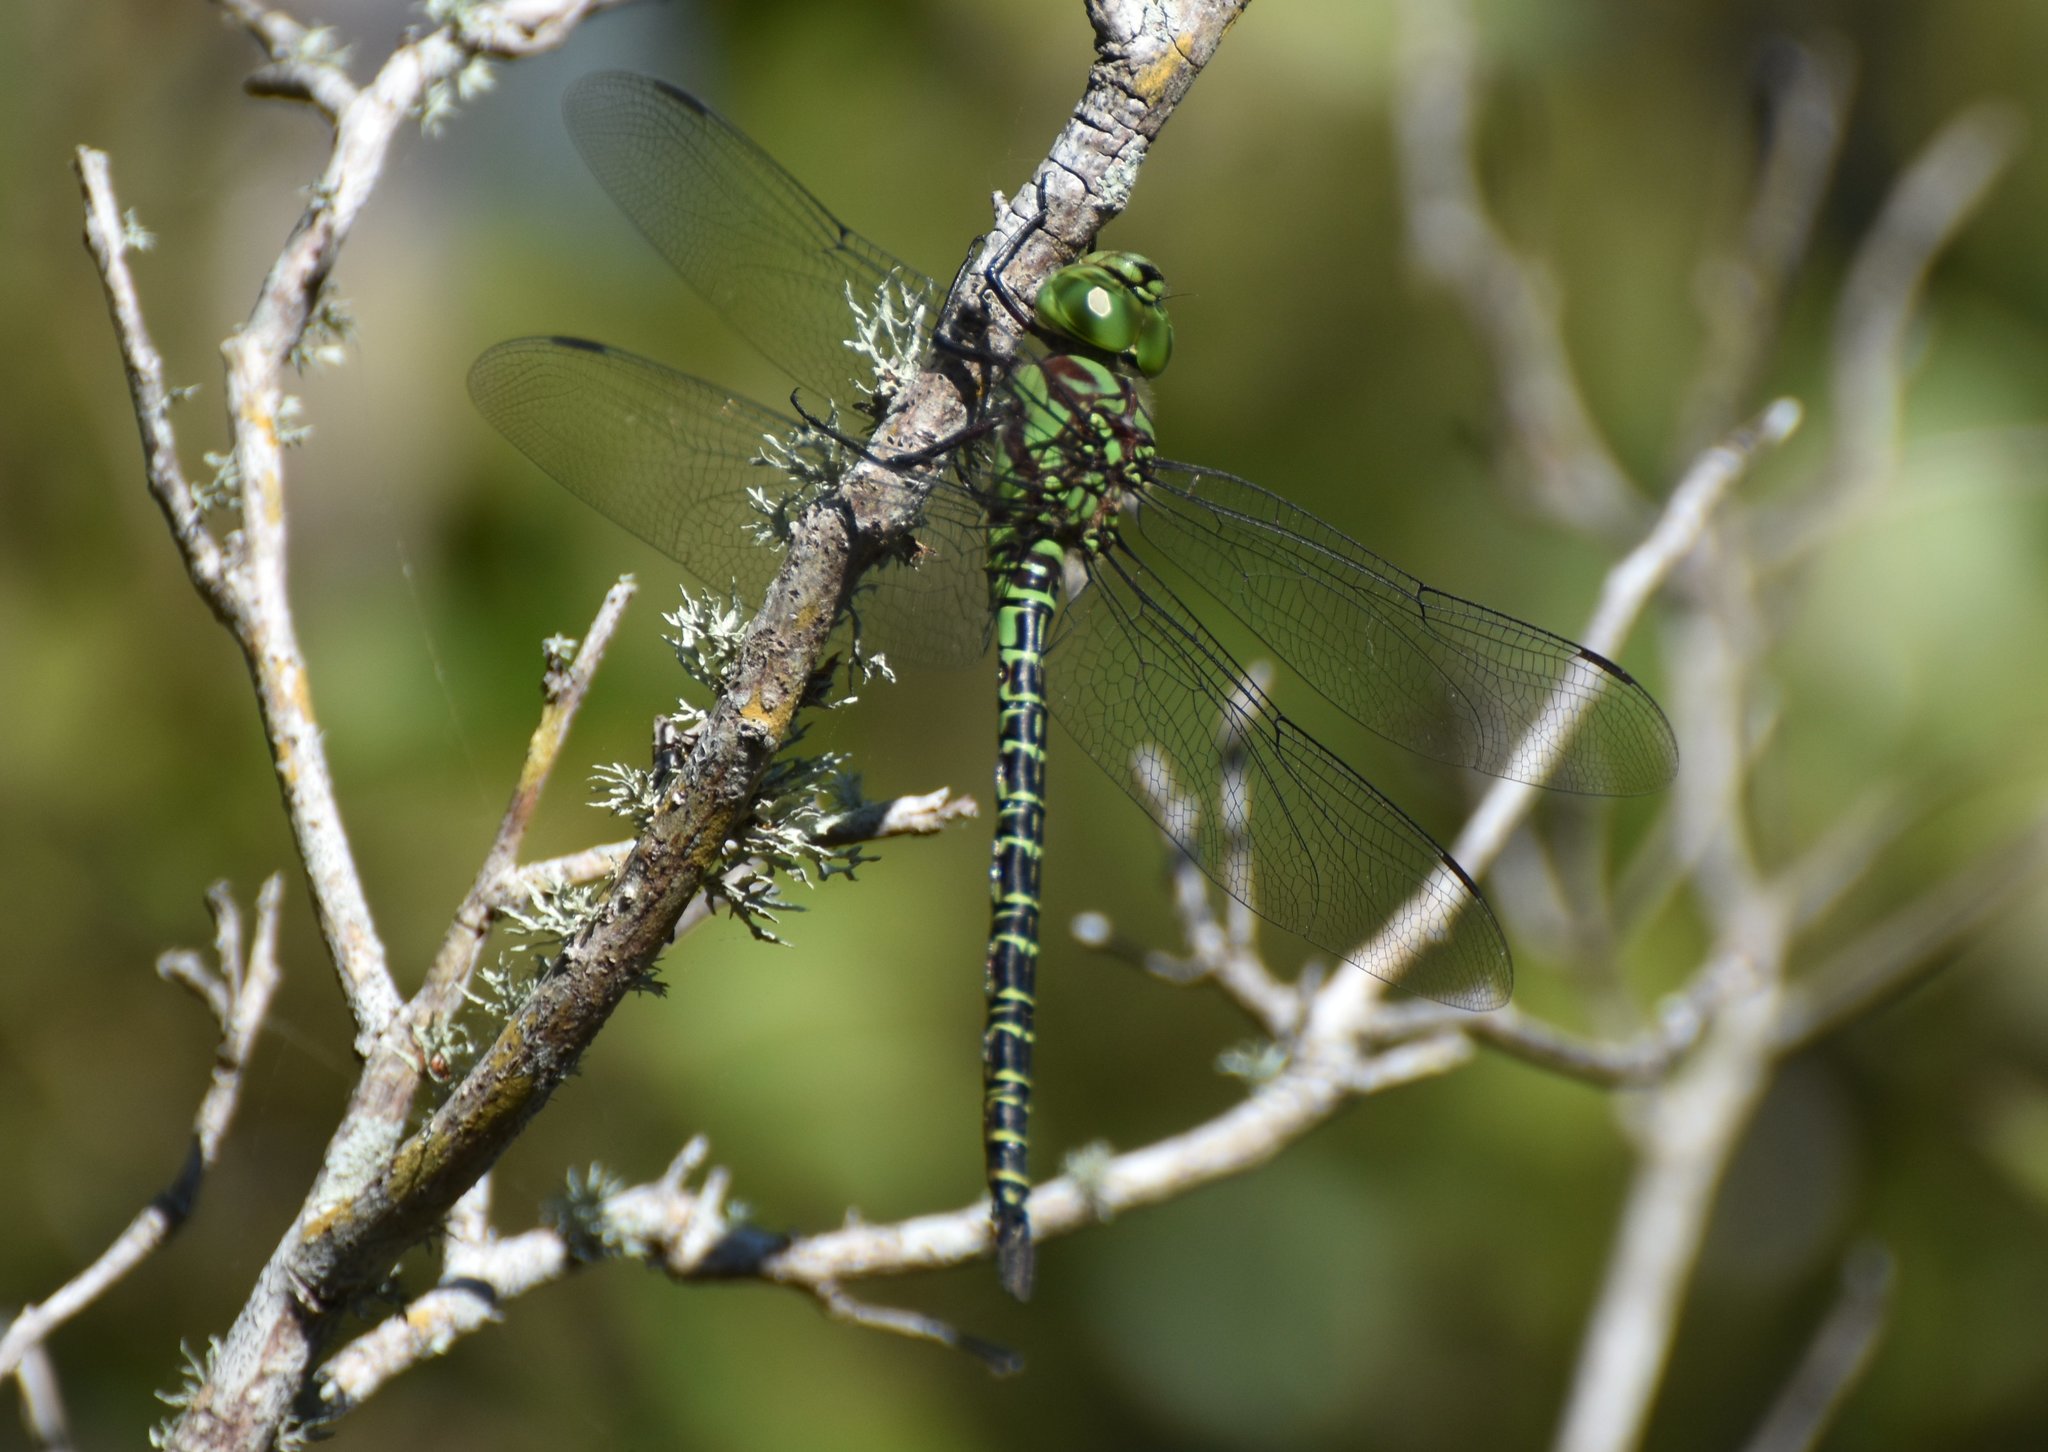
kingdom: Animalia
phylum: Arthropoda
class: Insecta
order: Odonata
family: Aeshnidae
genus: Coryphaeschna
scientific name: Coryphaeschna ingens
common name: Regal darner
